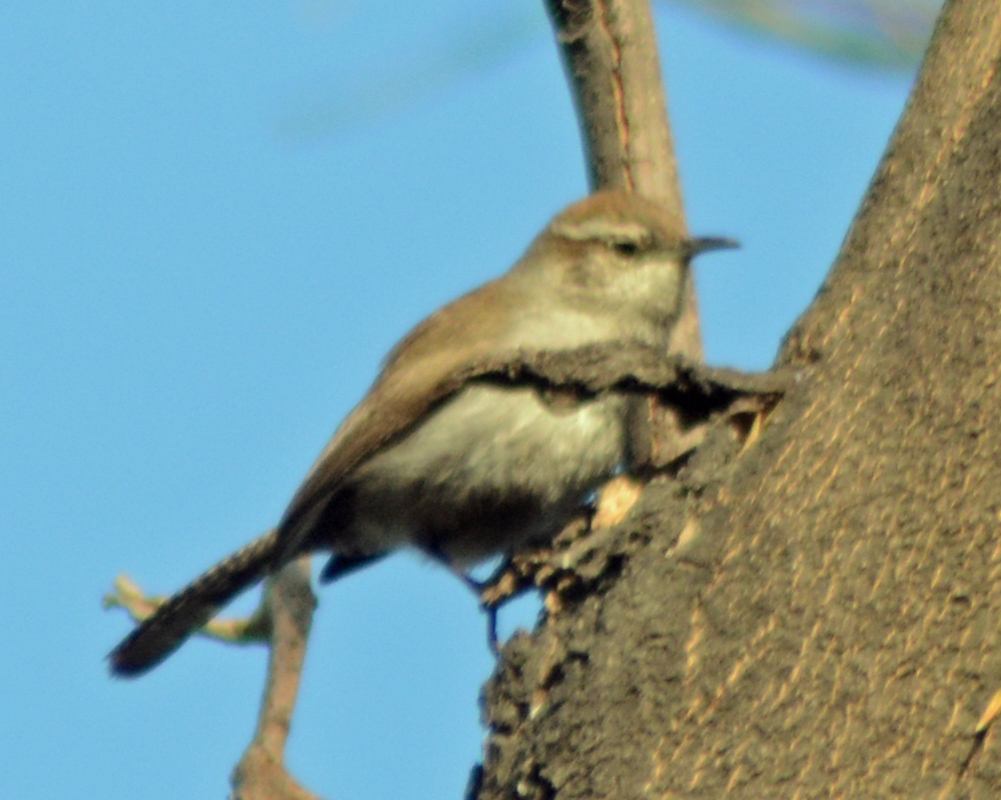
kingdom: Animalia
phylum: Chordata
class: Aves
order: Passeriformes
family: Troglodytidae
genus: Thryomanes
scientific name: Thryomanes bewickii
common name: Bewick's wren
